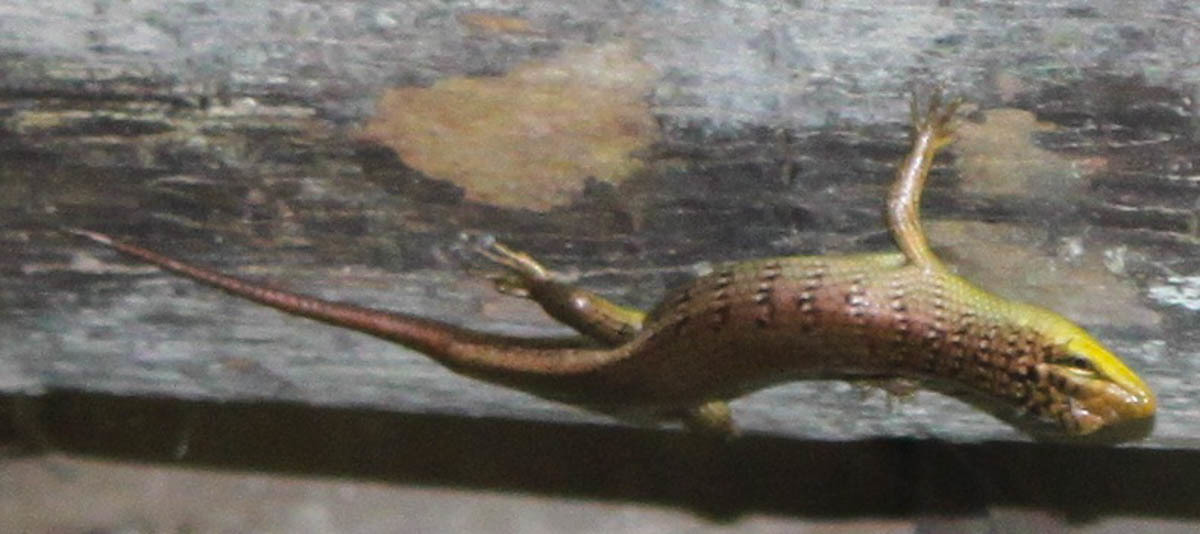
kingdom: Animalia
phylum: Chordata
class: Squamata
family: Scincidae
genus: Dasia
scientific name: Dasia olivacea
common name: Olive dasia
